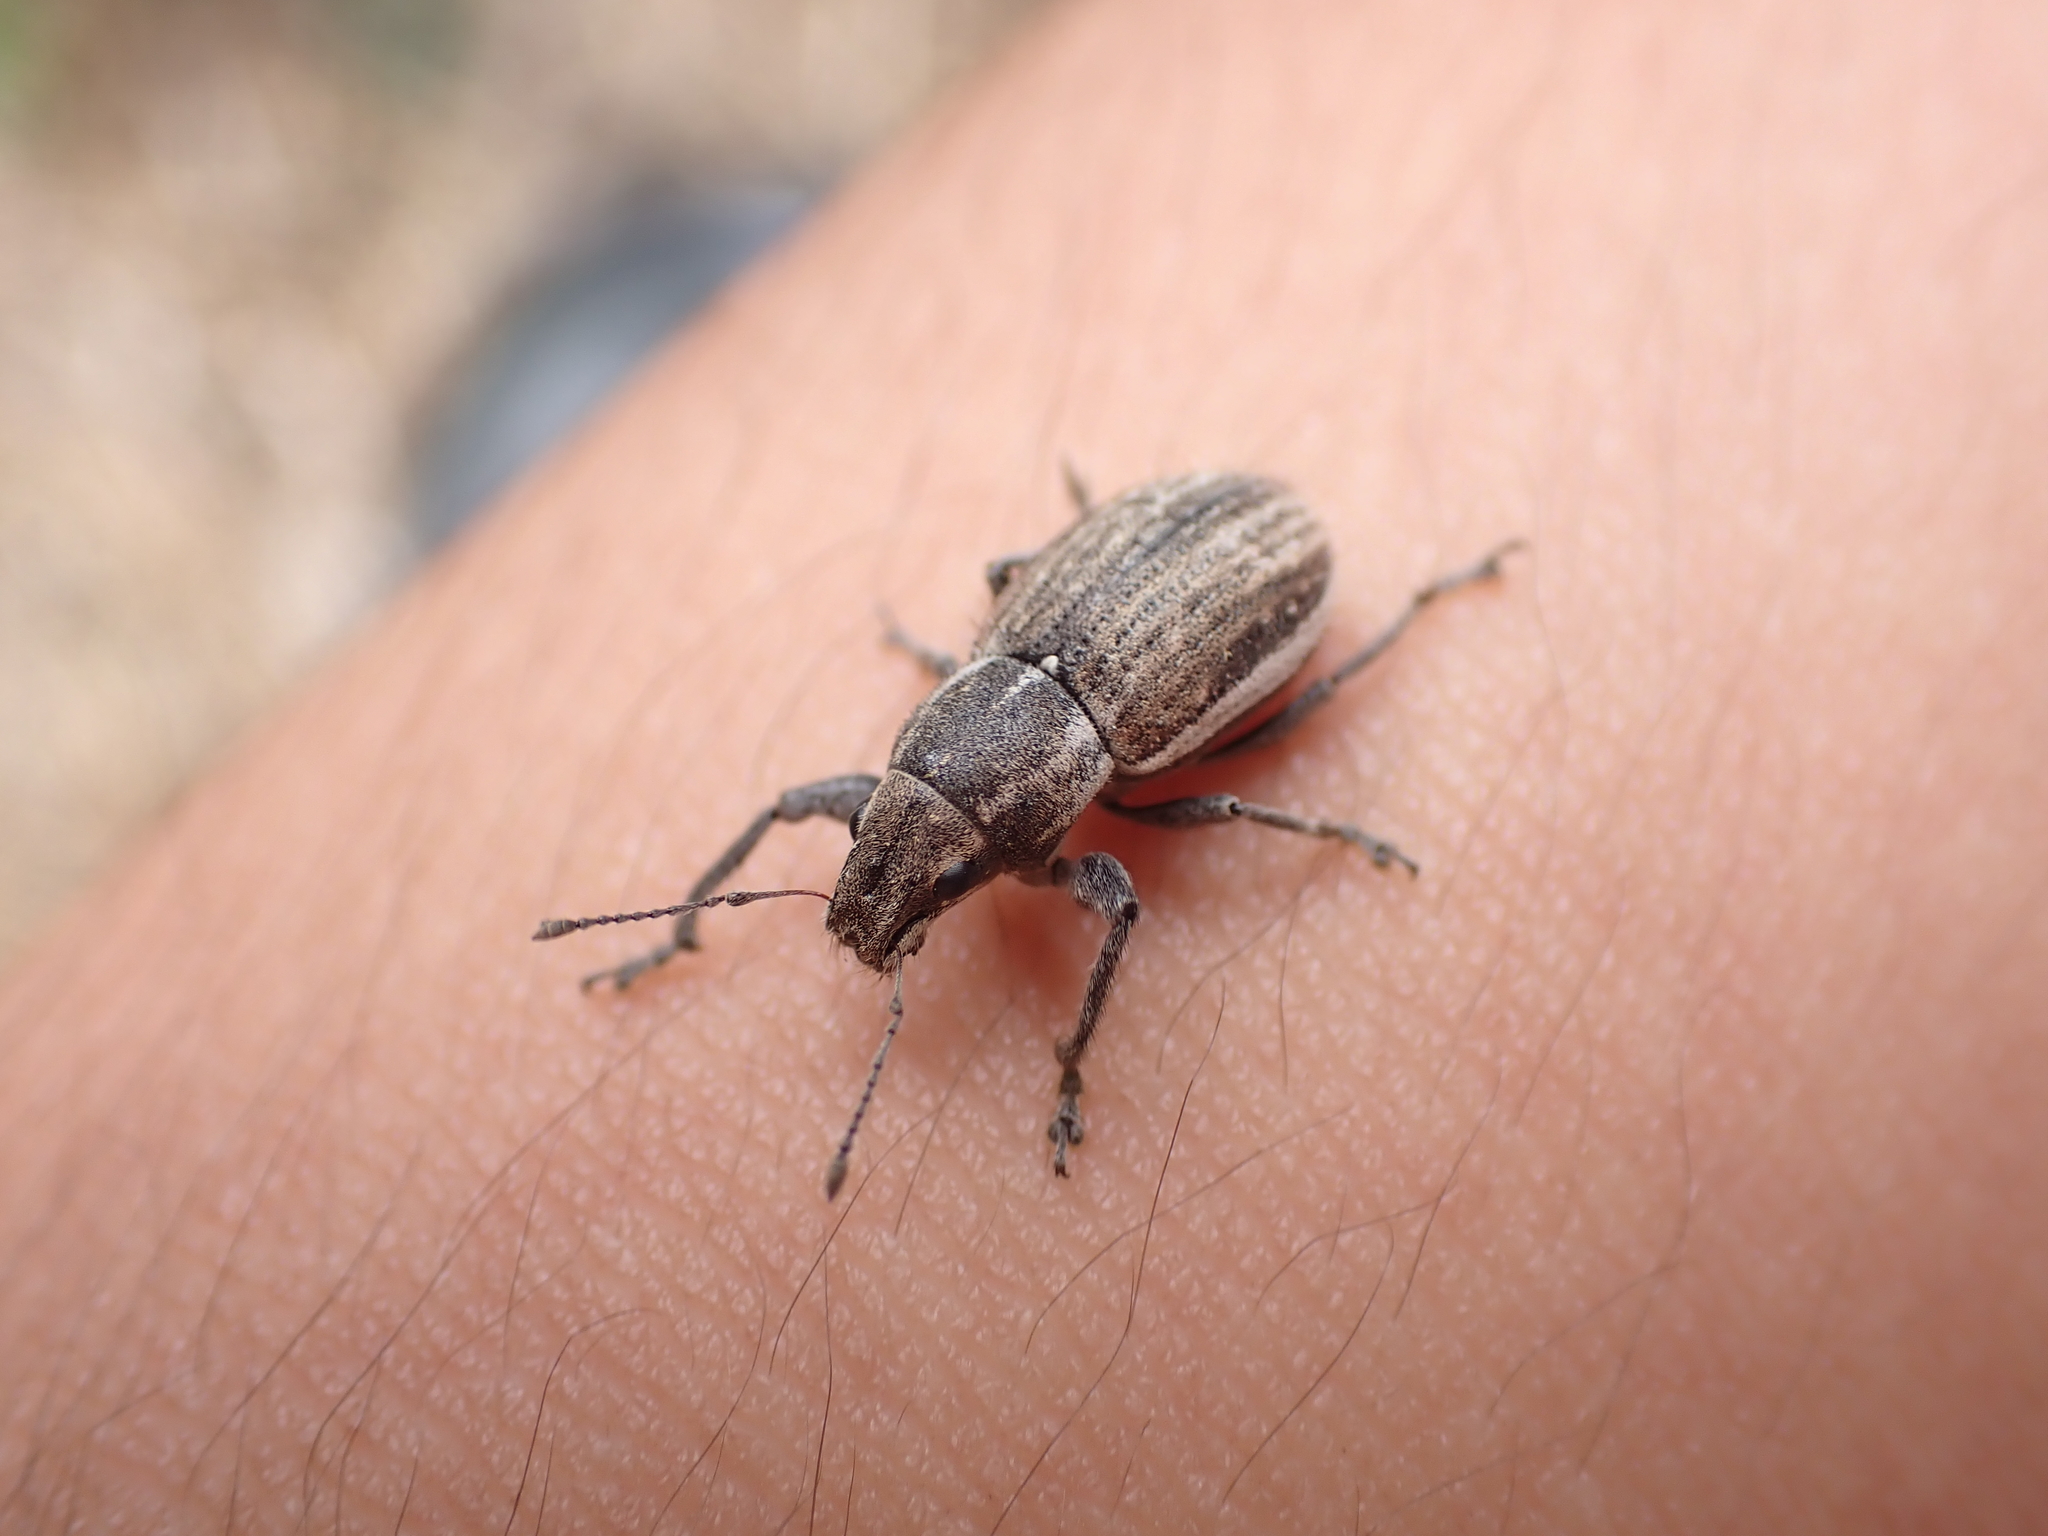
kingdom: Animalia
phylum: Arthropoda
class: Insecta
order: Coleoptera
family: Curculionidae
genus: Naupactus
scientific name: Naupactus leucoloma
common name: Whitefringed beetle
